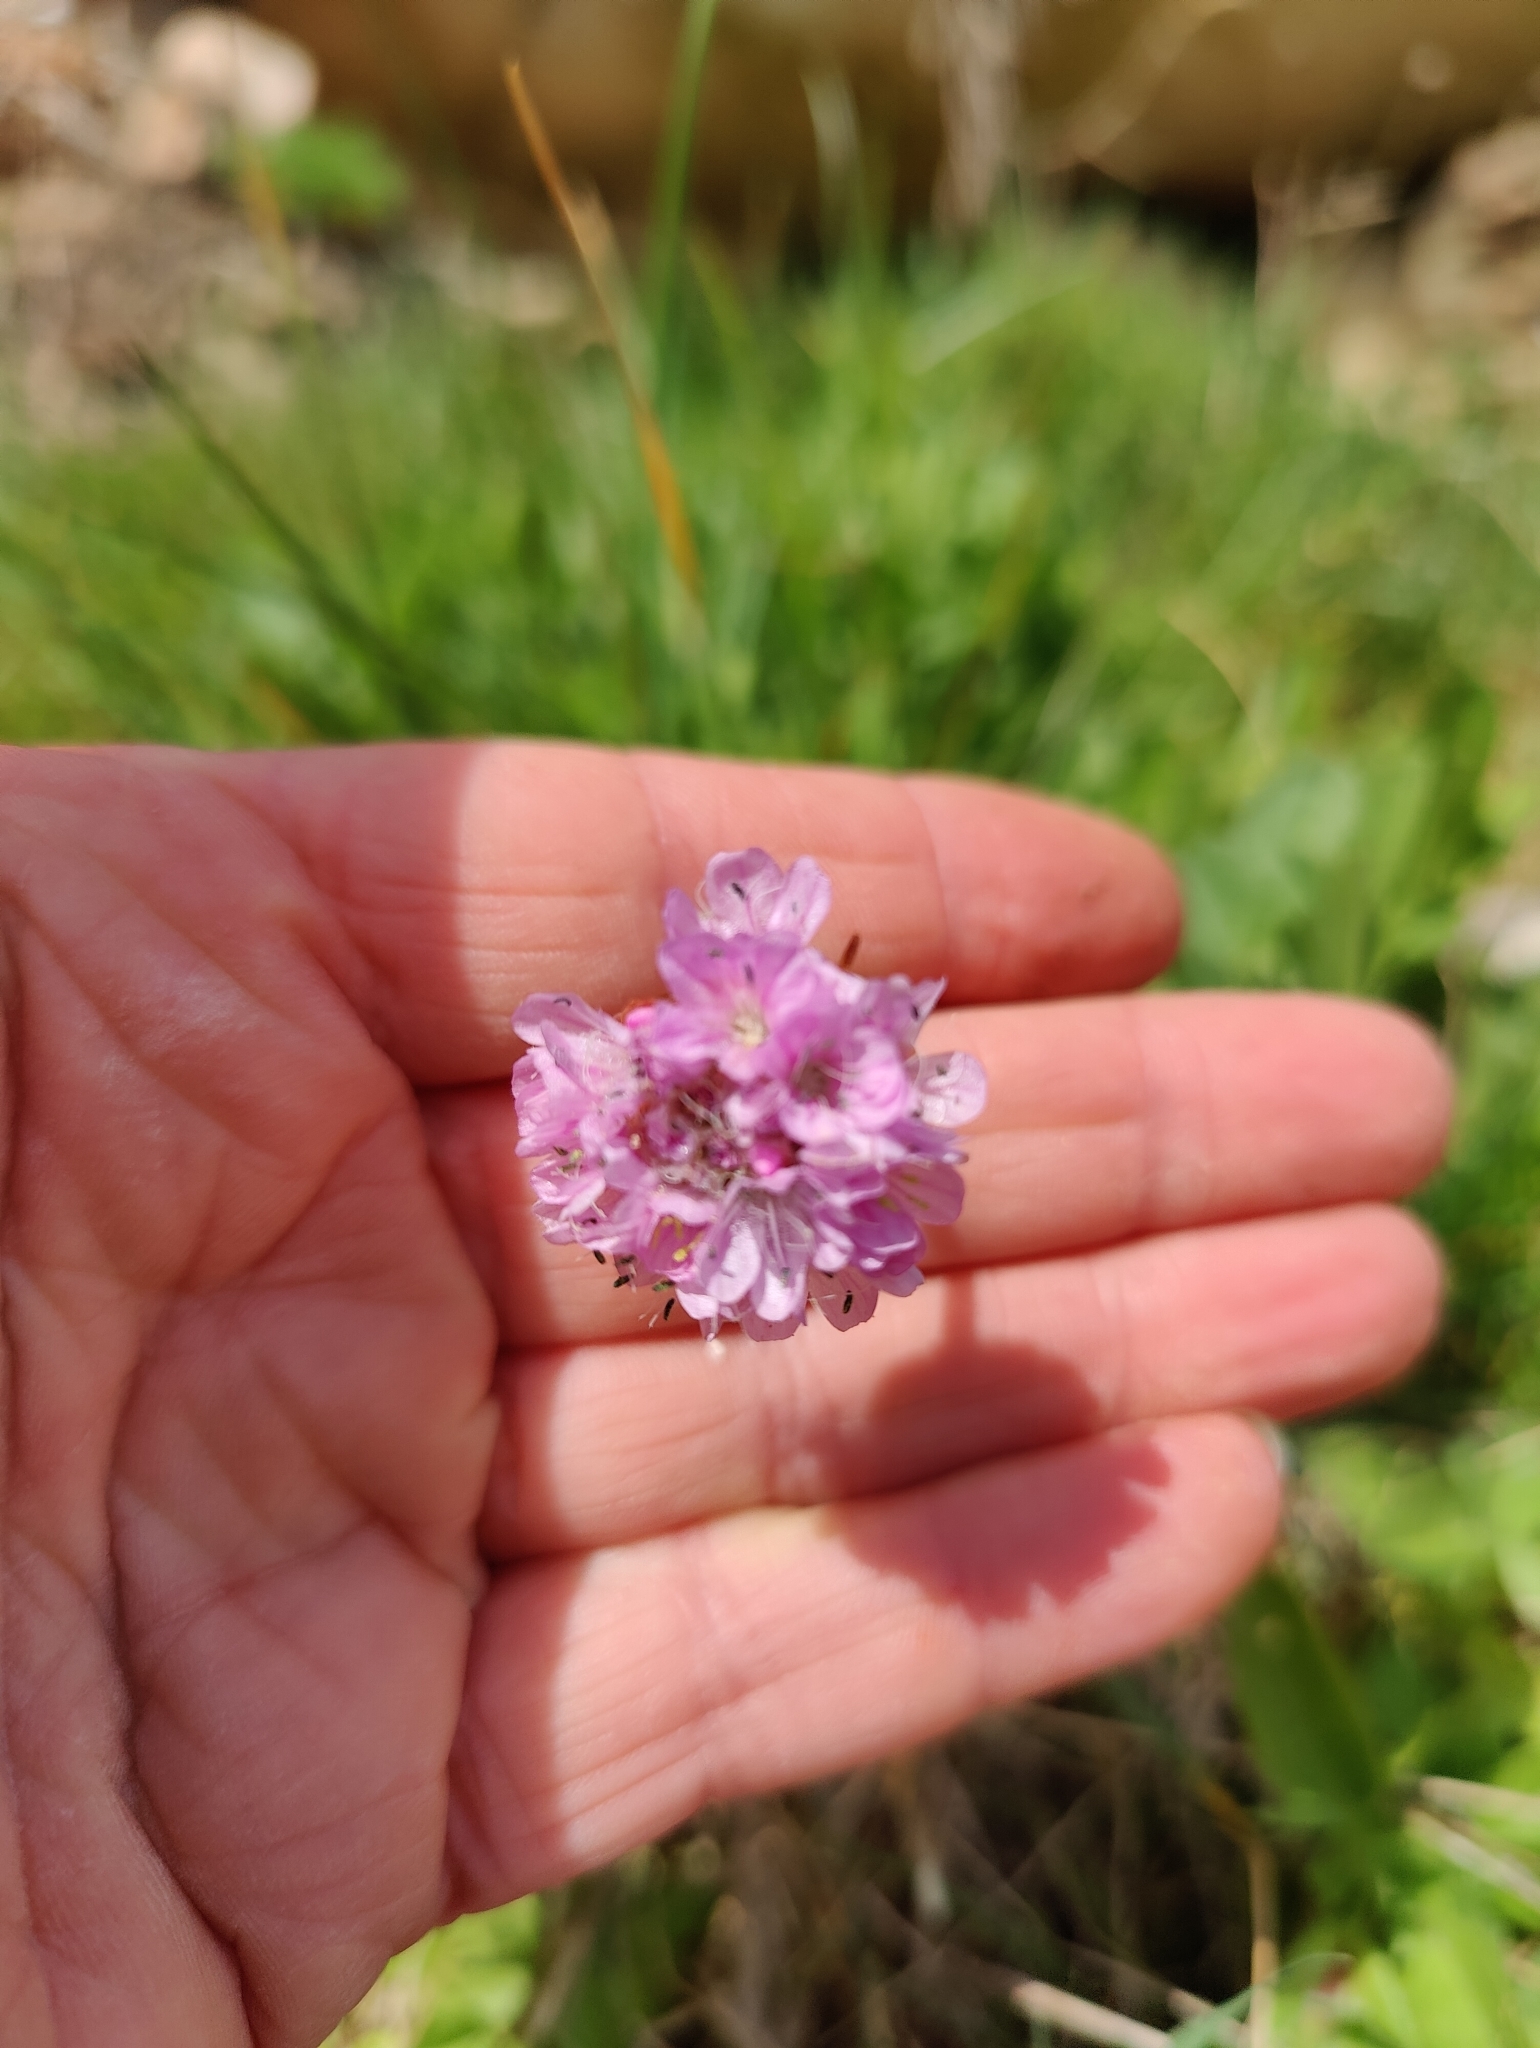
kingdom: Plantae
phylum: Tracheophyta
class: Magnoliopsida
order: Caryophyllales
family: Plumbaginaceae
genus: Armeria
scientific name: Armeria maritima
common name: Thrift
